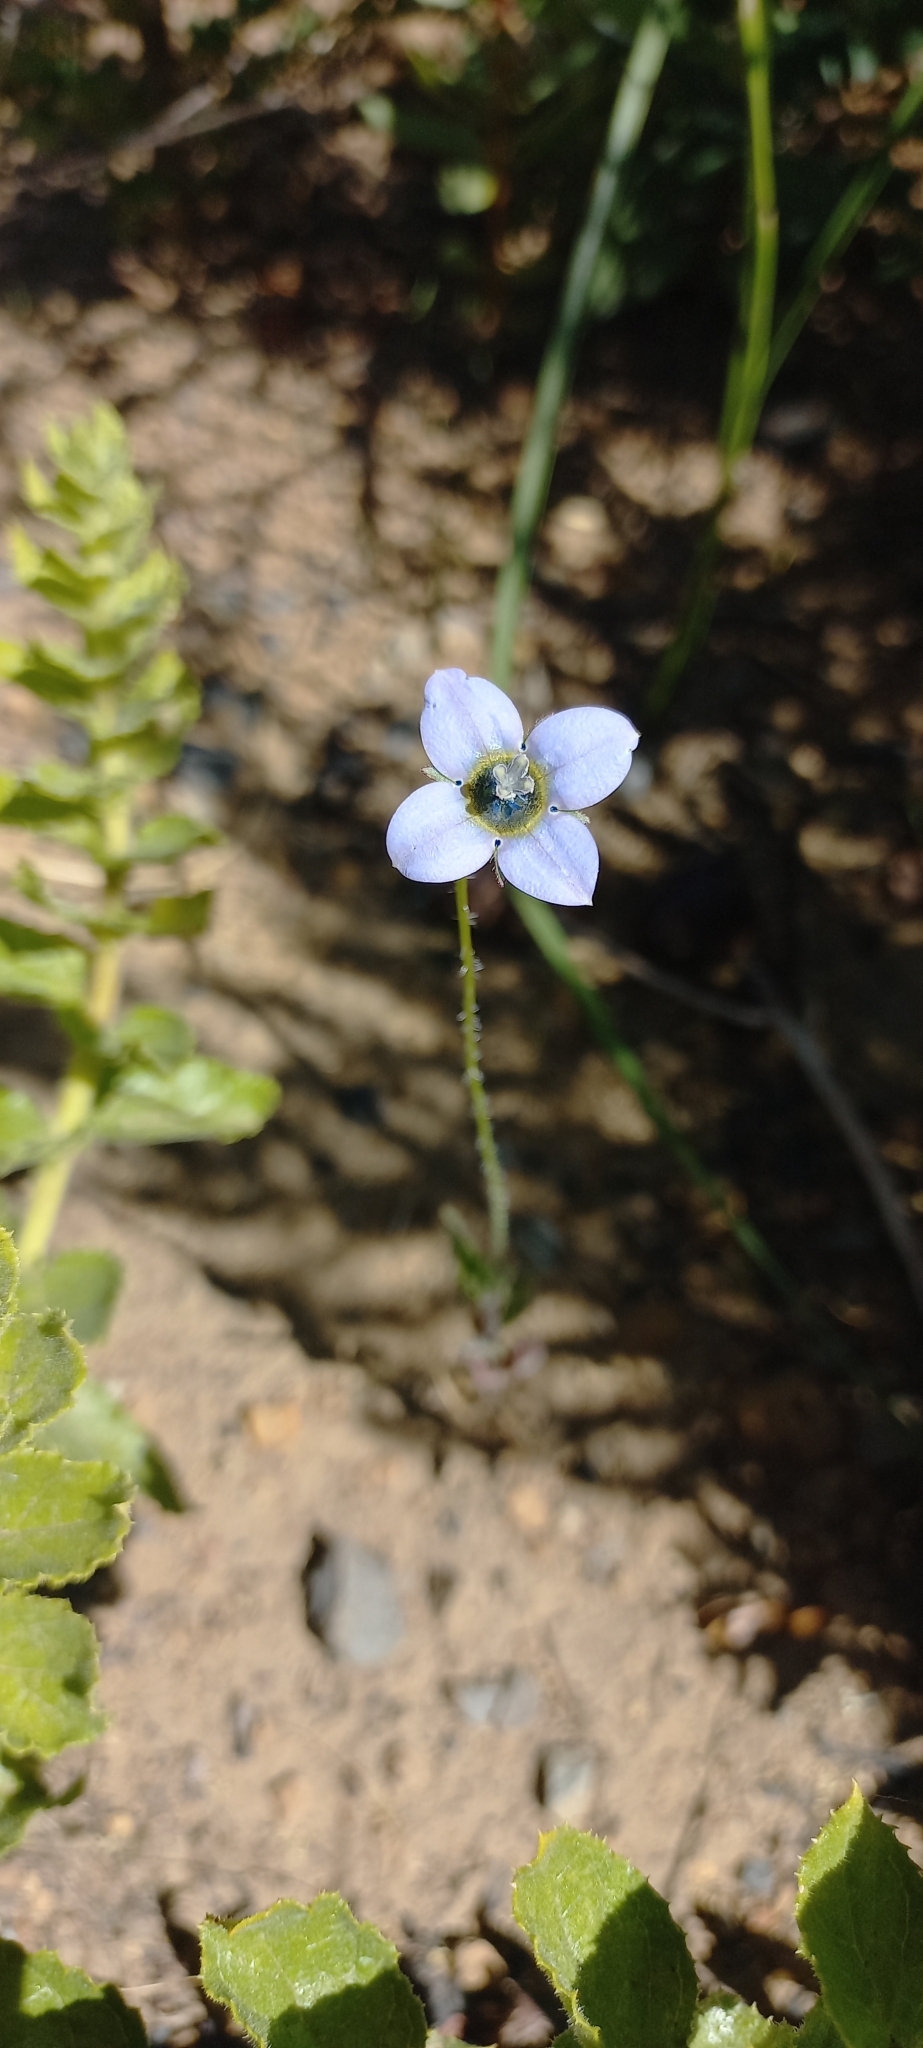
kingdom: Plantae
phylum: Tracheophyta
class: Magnoliopsida
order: Asterales
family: Campanulaceae
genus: Wahlenbergia
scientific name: Wahlenbergia capensis
